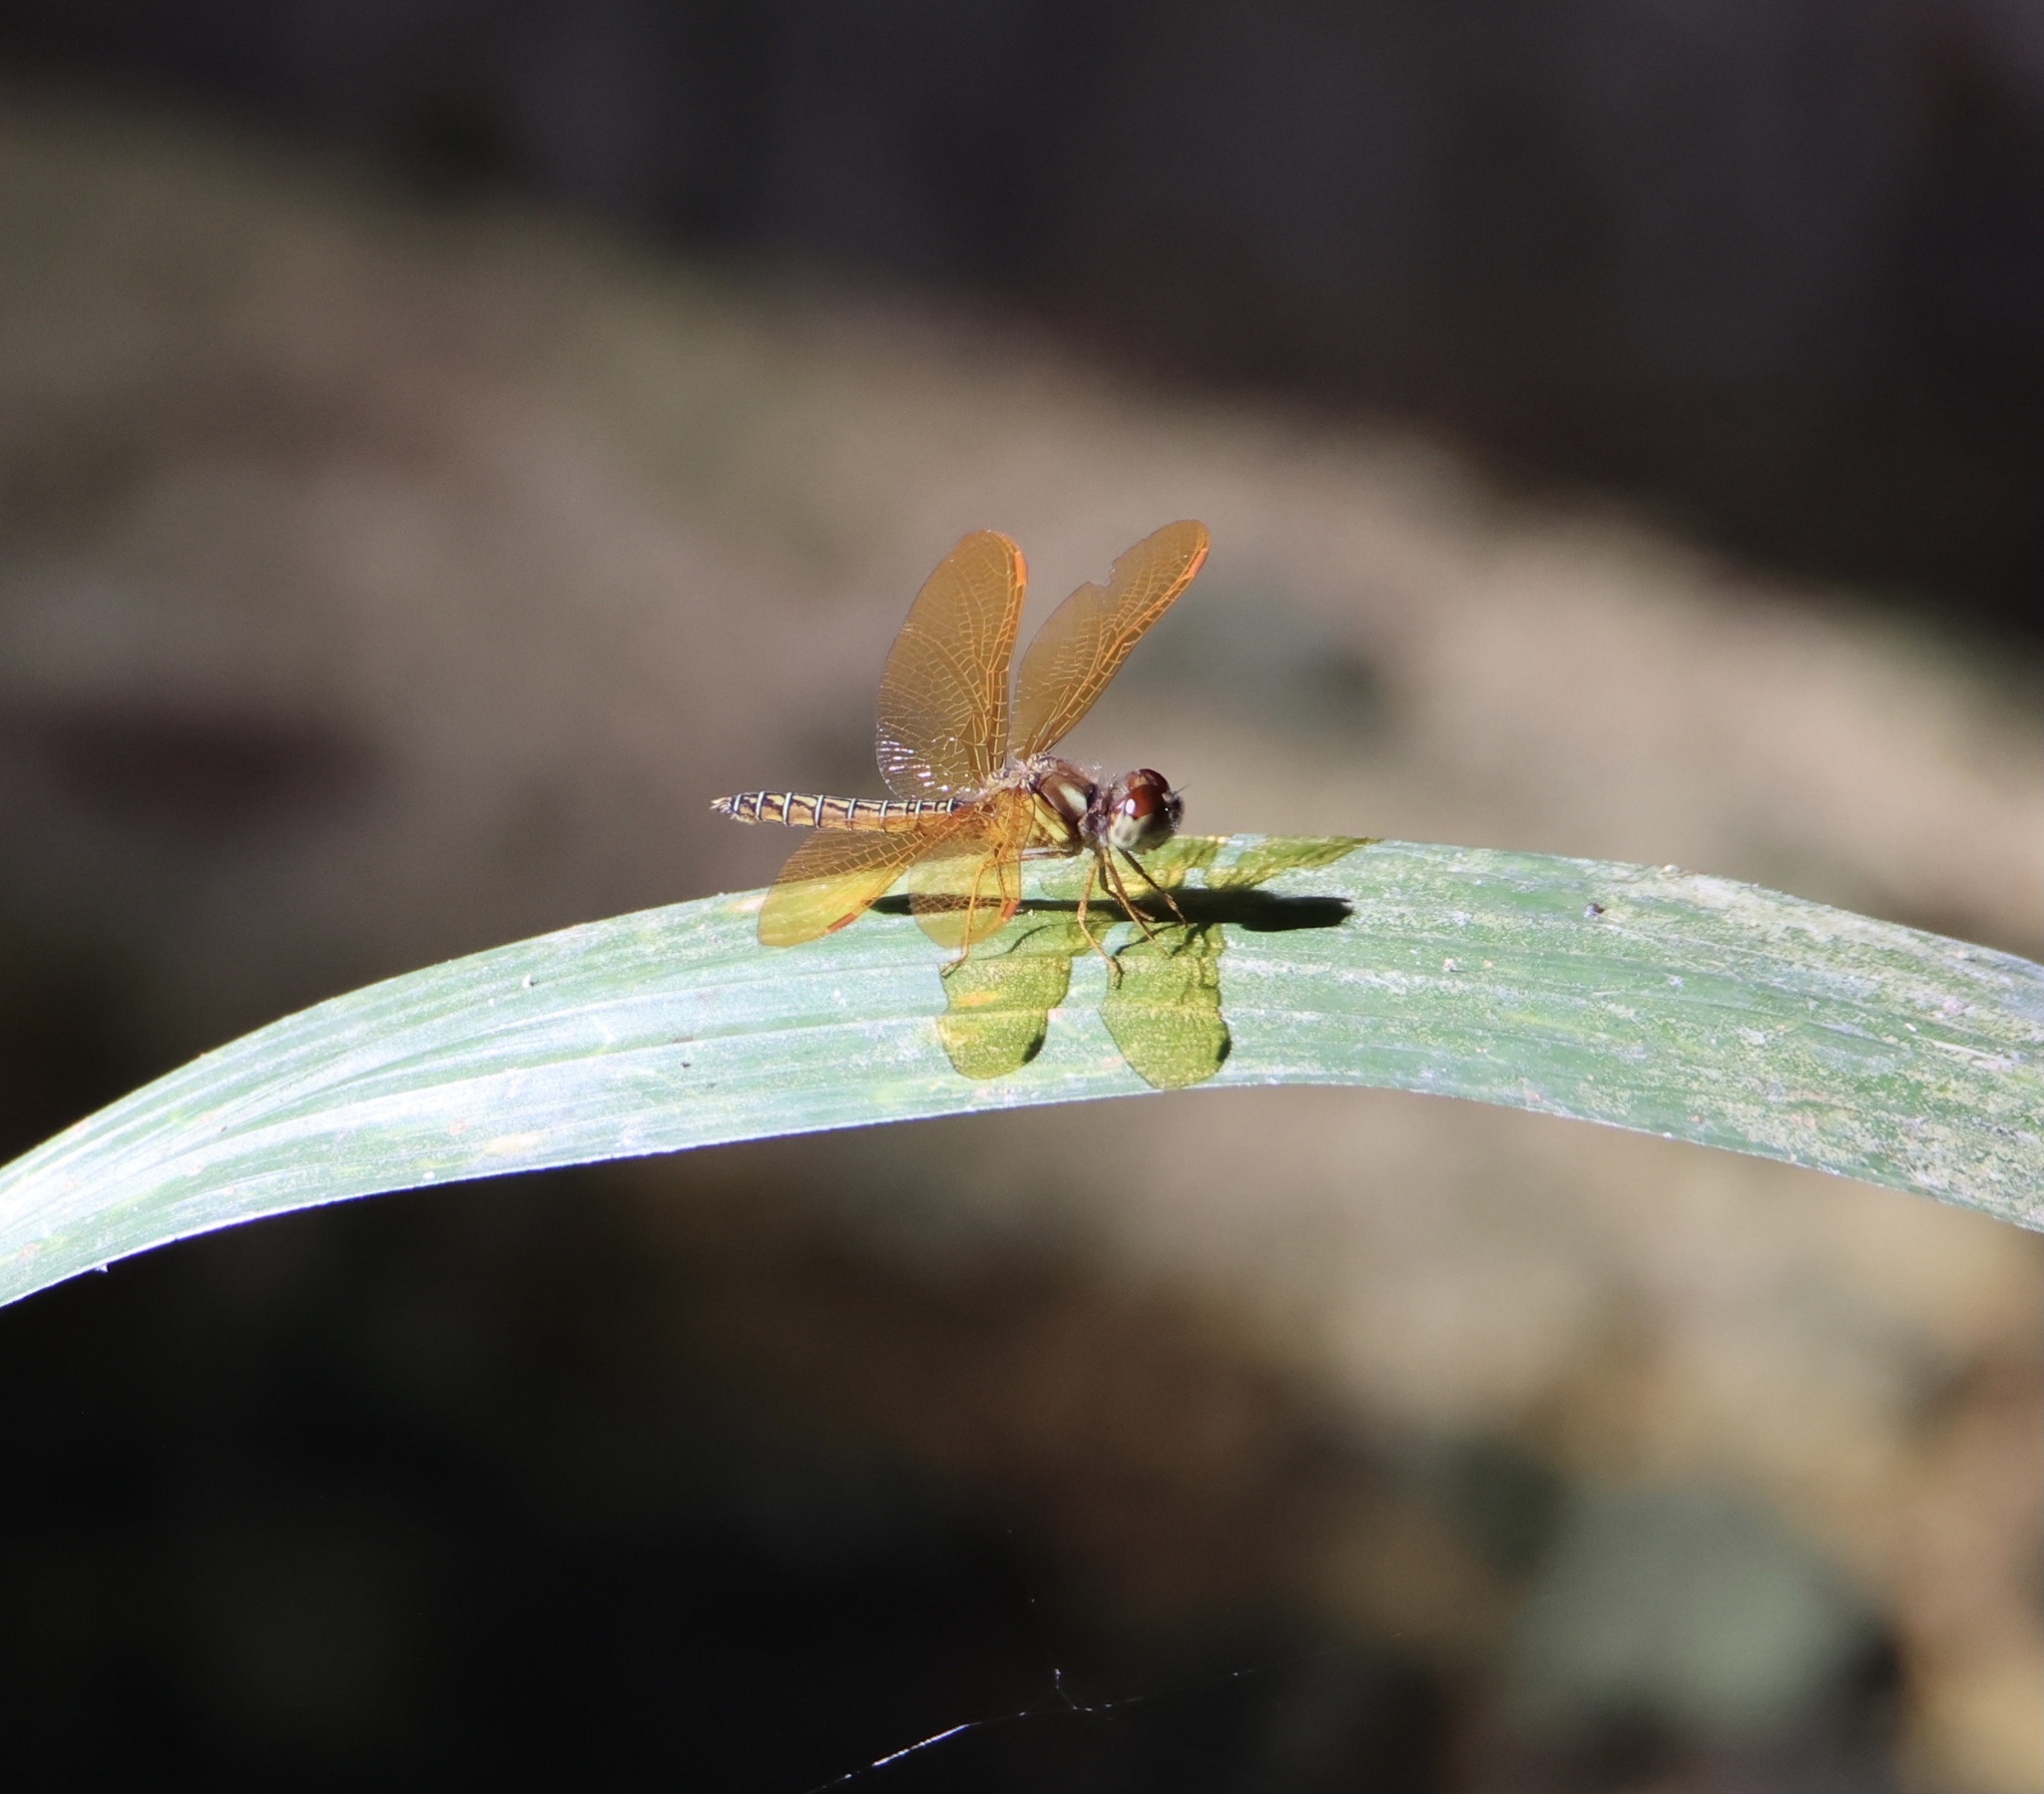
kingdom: Animalia
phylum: Arthropoda
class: Insecta
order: Odonata
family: Libellulidae
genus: Perithemis
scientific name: Perithemis tenera
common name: Eastern amberwing
